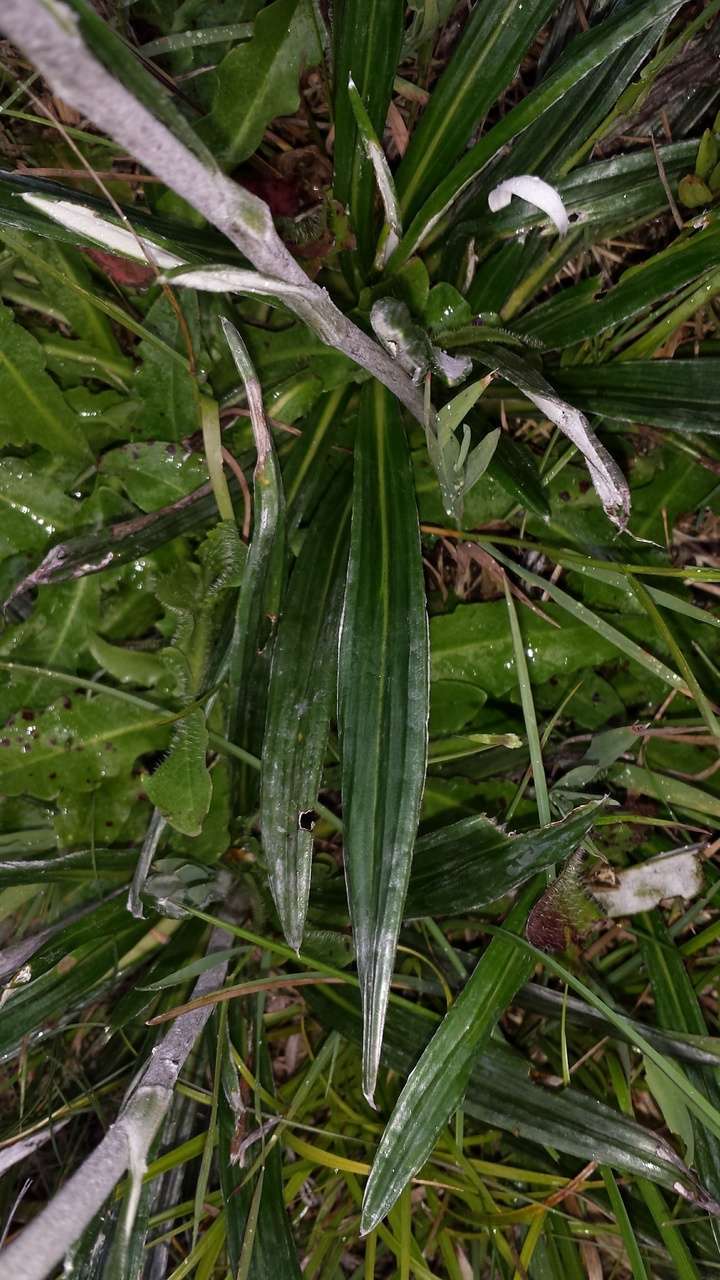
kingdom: Plantae
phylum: Tracheophyta
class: Magnoliopsida
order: Asterales
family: Asteraceae
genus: Celmisia
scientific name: Celmisia tomentella
